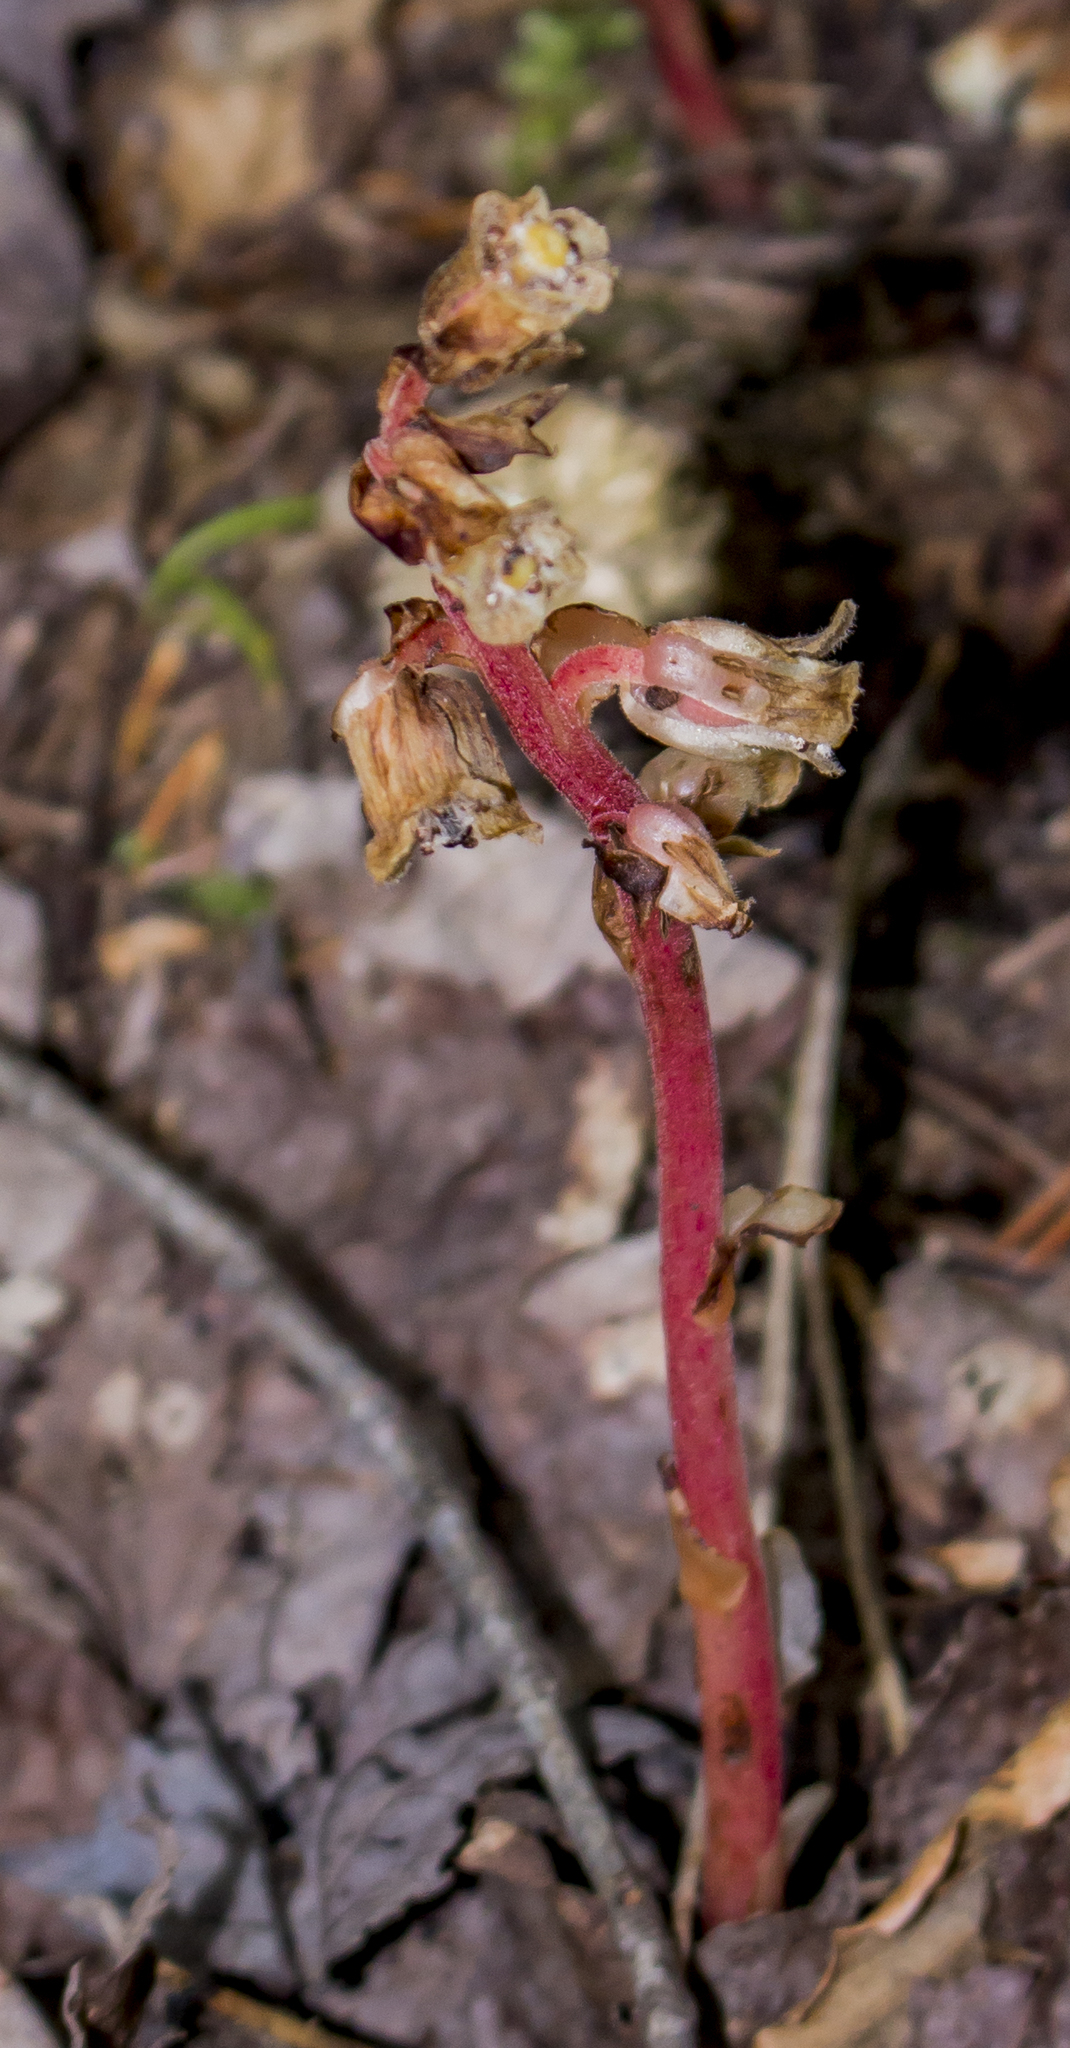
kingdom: Plantae
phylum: Tracheophyta
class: Magnoliopsida
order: Ericales
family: Ericaceae
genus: Hypopitys
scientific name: Hypopitys monotropa
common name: Yellow bird's-nest
